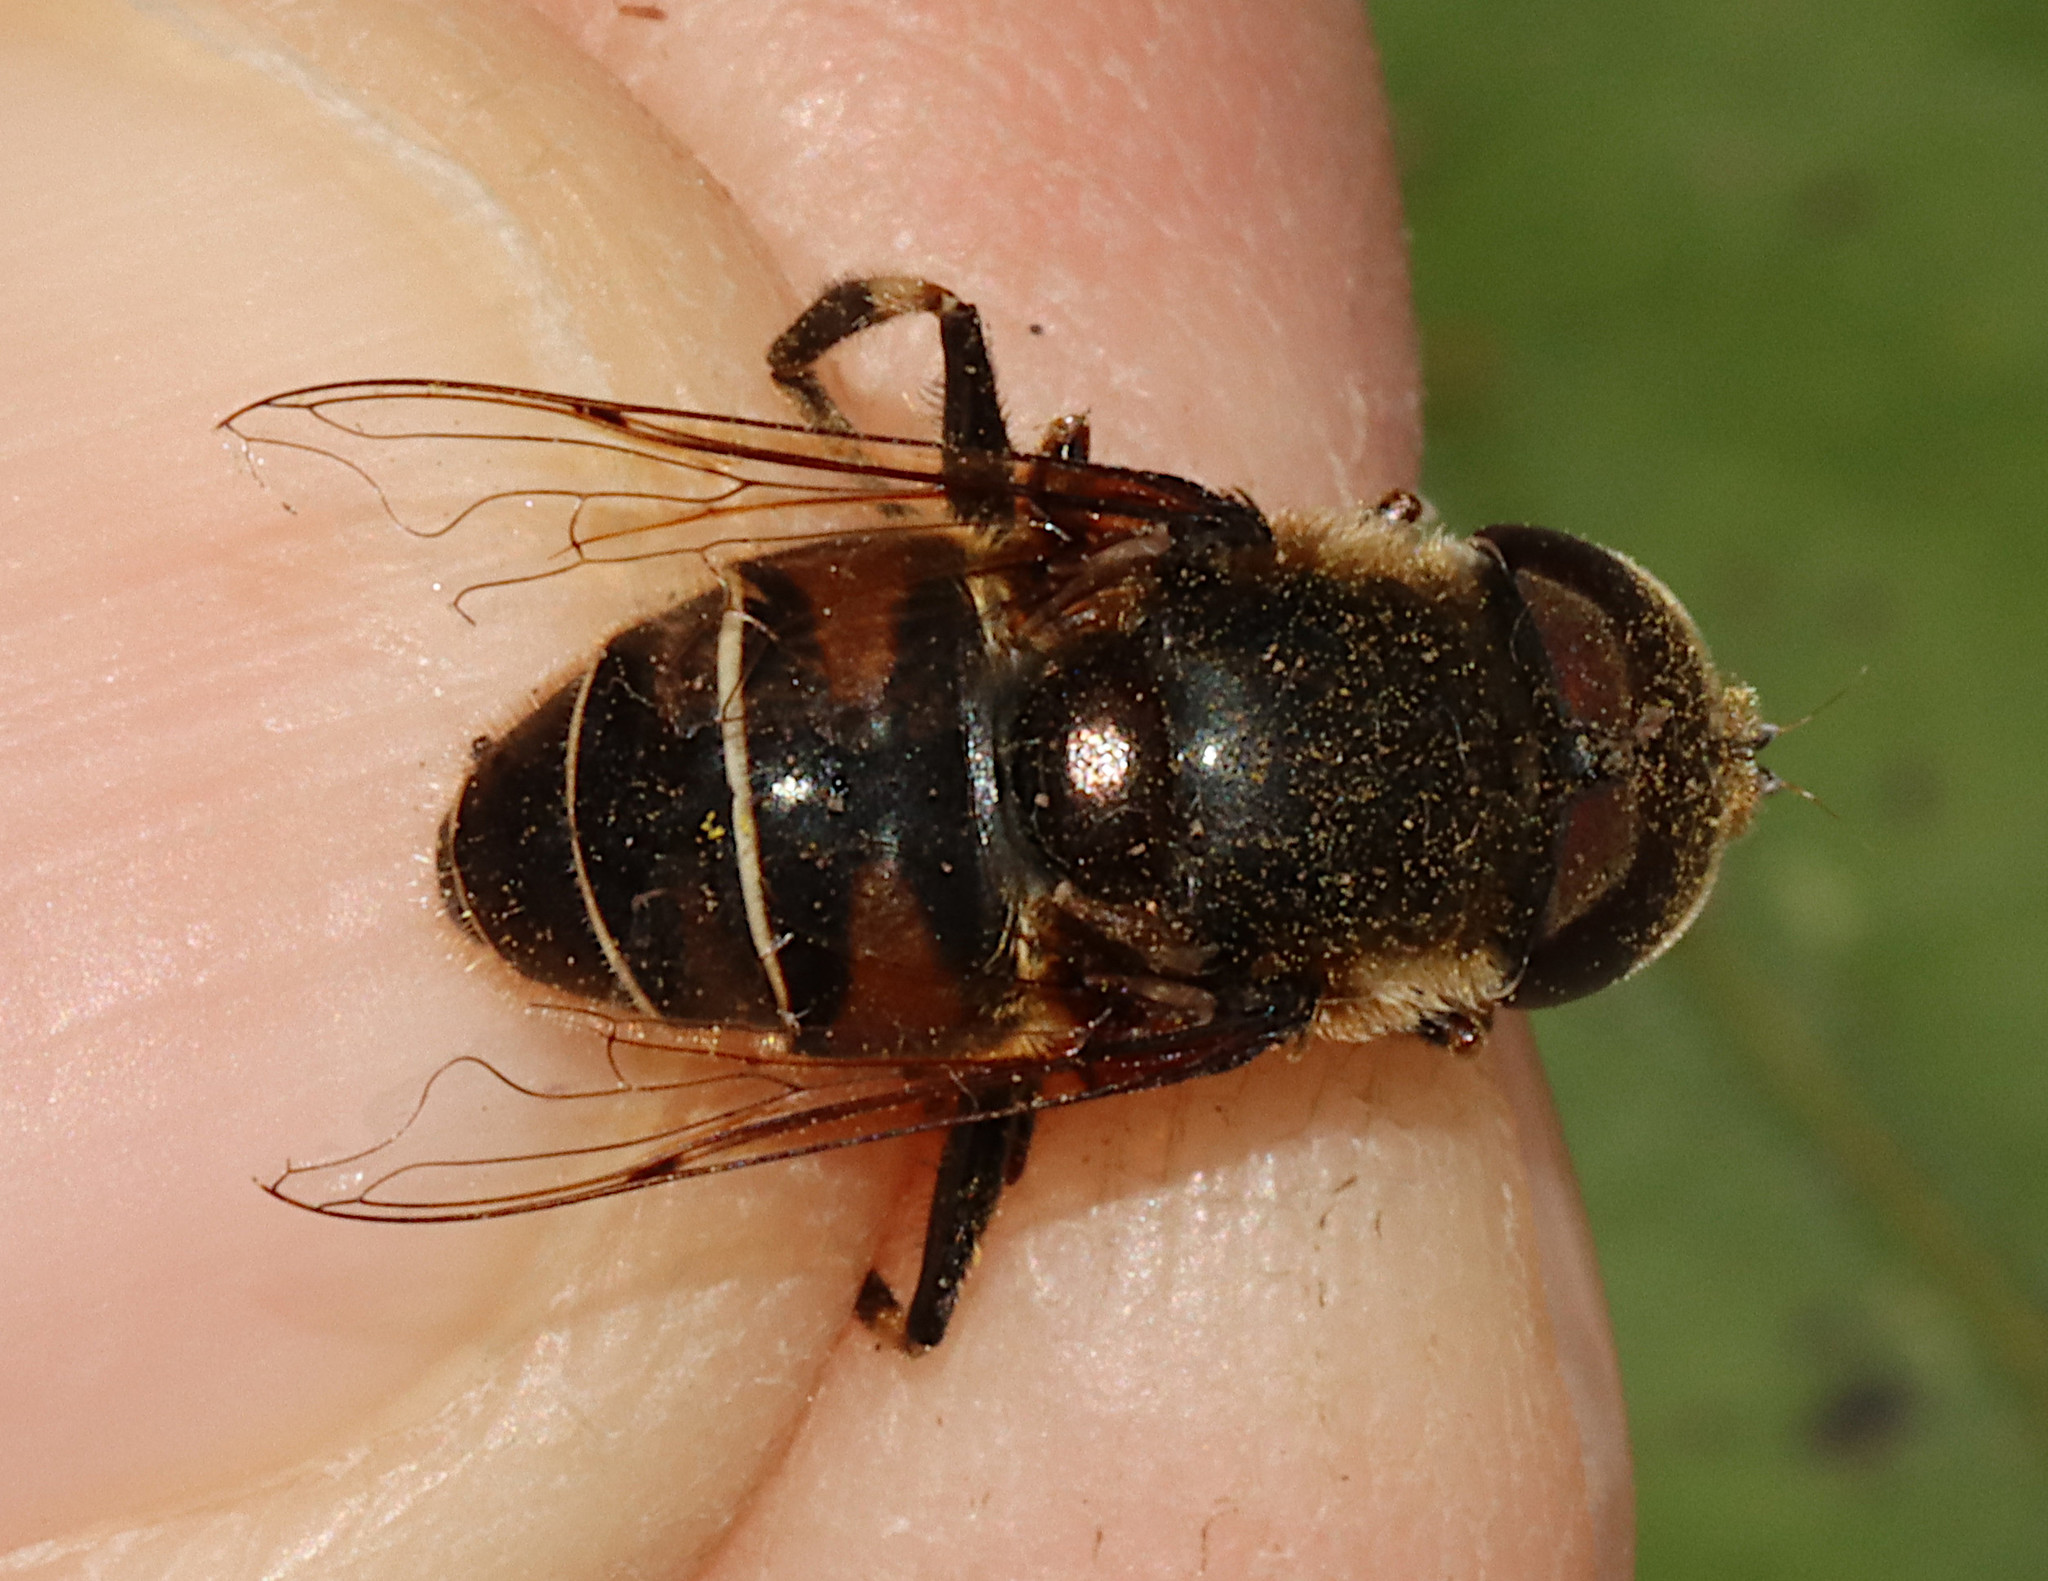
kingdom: Animalia
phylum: Arthropoda
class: Insecta
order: Diptera
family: Syrphidae
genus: Eristalis
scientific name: Eristalis dimidiata
